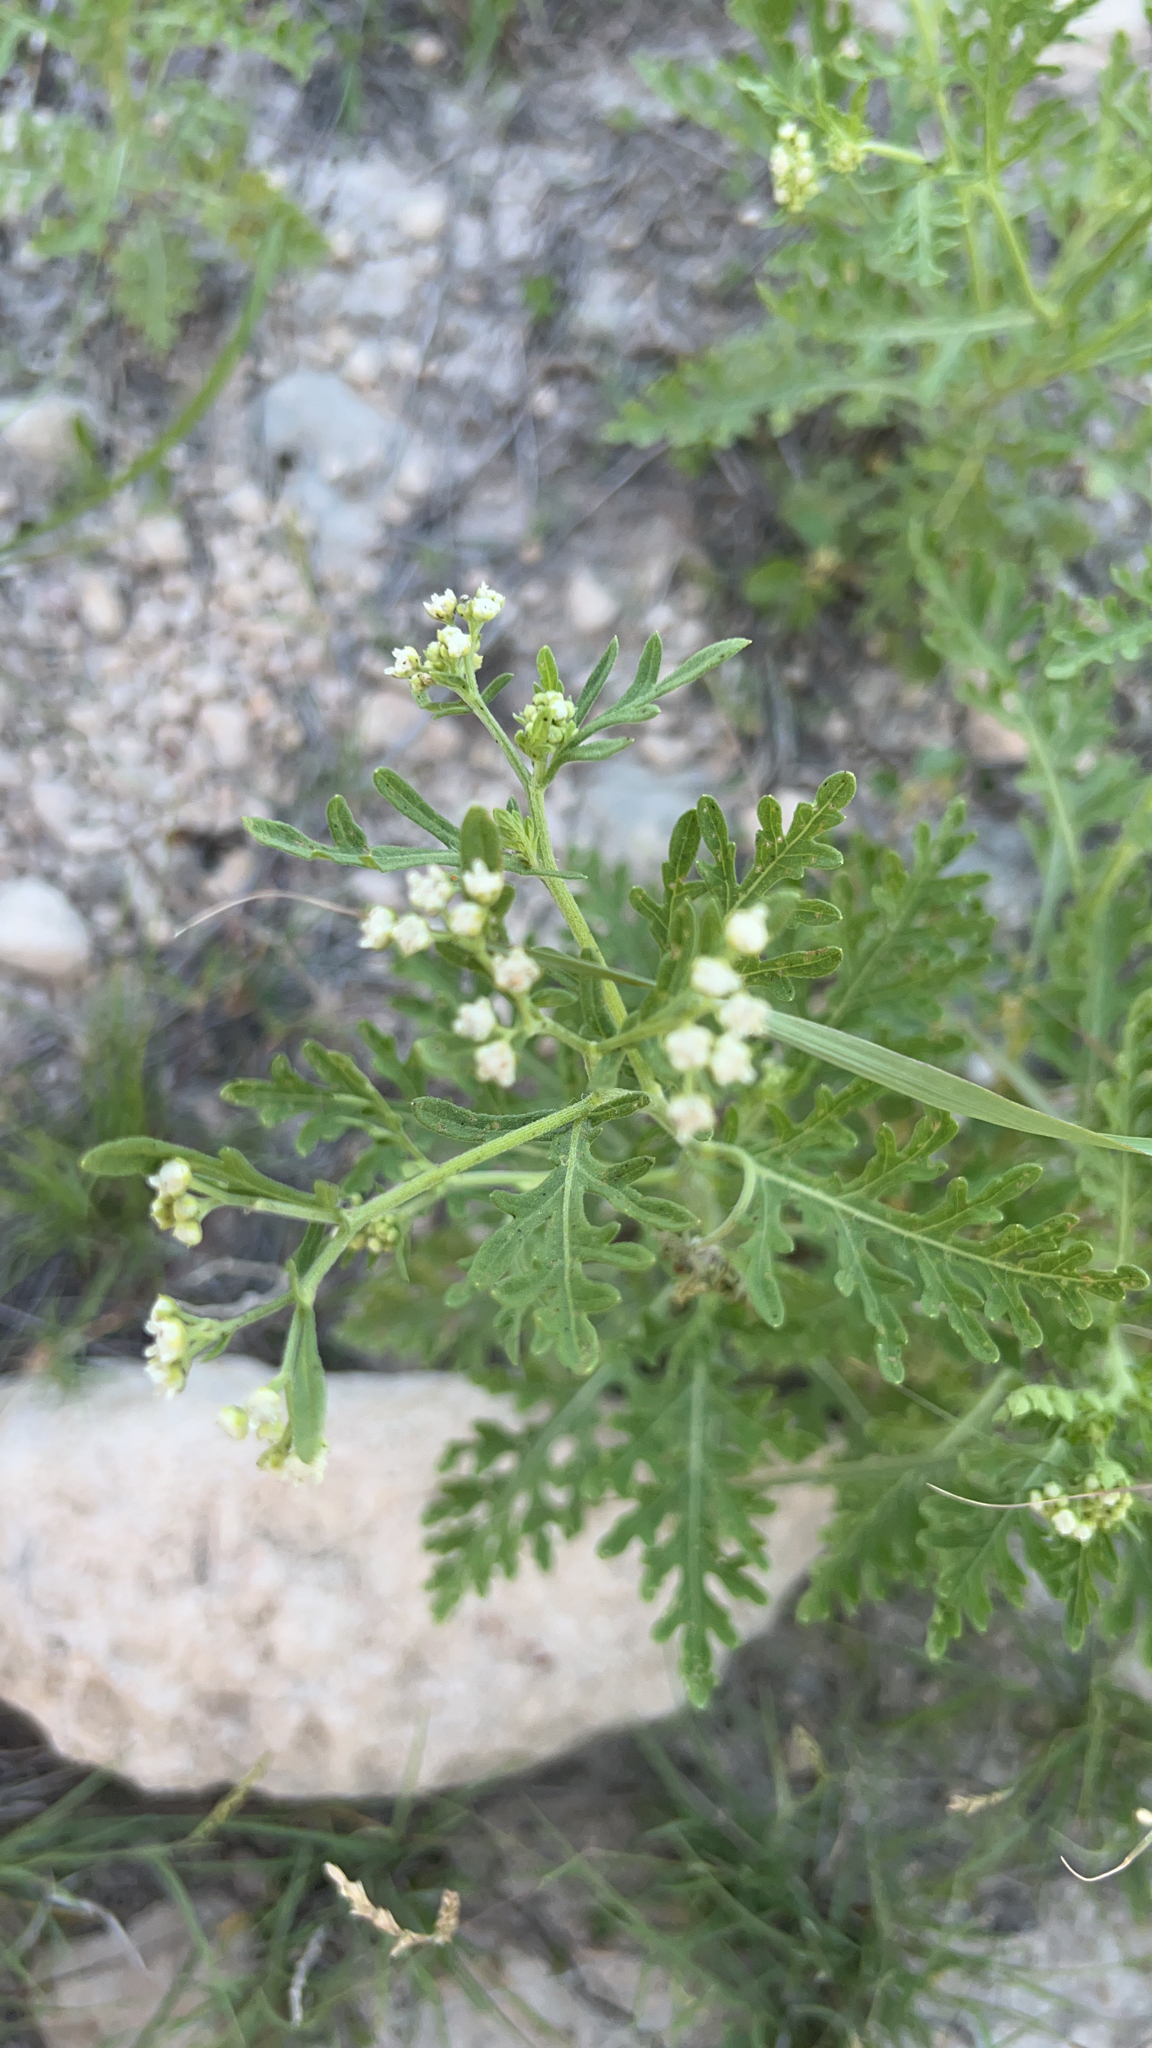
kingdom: Plantae
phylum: Tracheophyta
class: Magnoliopsida
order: Asterales
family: Asteraceae
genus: Parthenium
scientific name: Parthenium hysterophorus
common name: Santa maria feverfew
